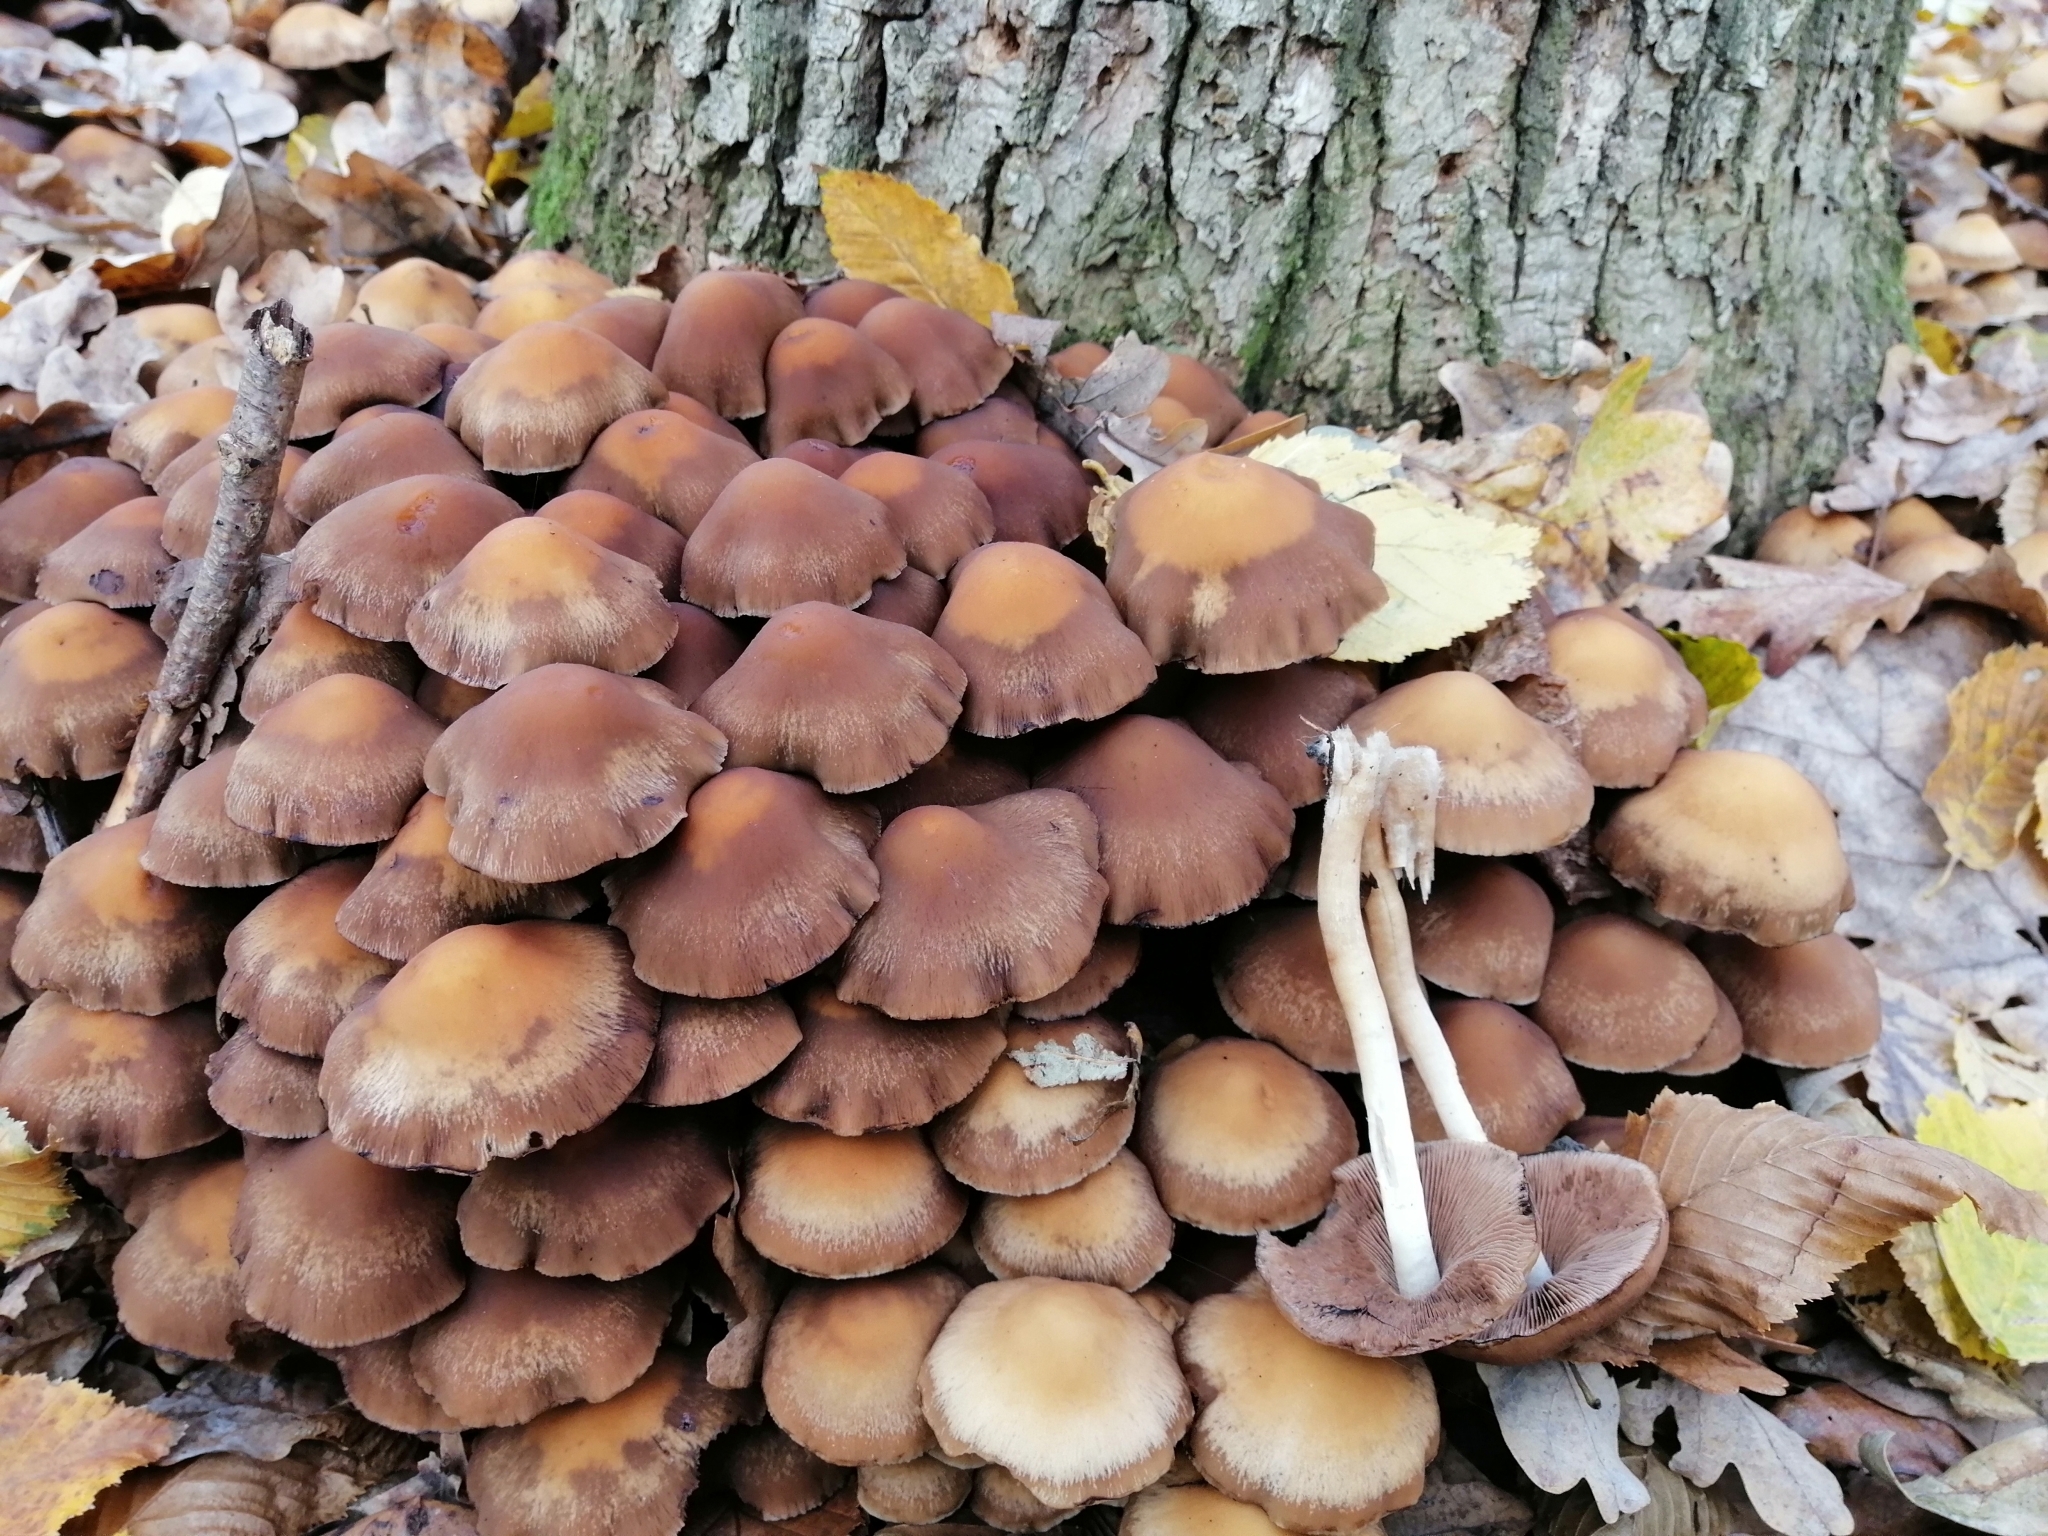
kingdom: Fungi
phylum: Basidiomycota
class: Agaricomycetes
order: Agaricales
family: Psathyrellaceae
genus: Psathyrella
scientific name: Psathyrella piluliformis
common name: Common stump brittlestem
